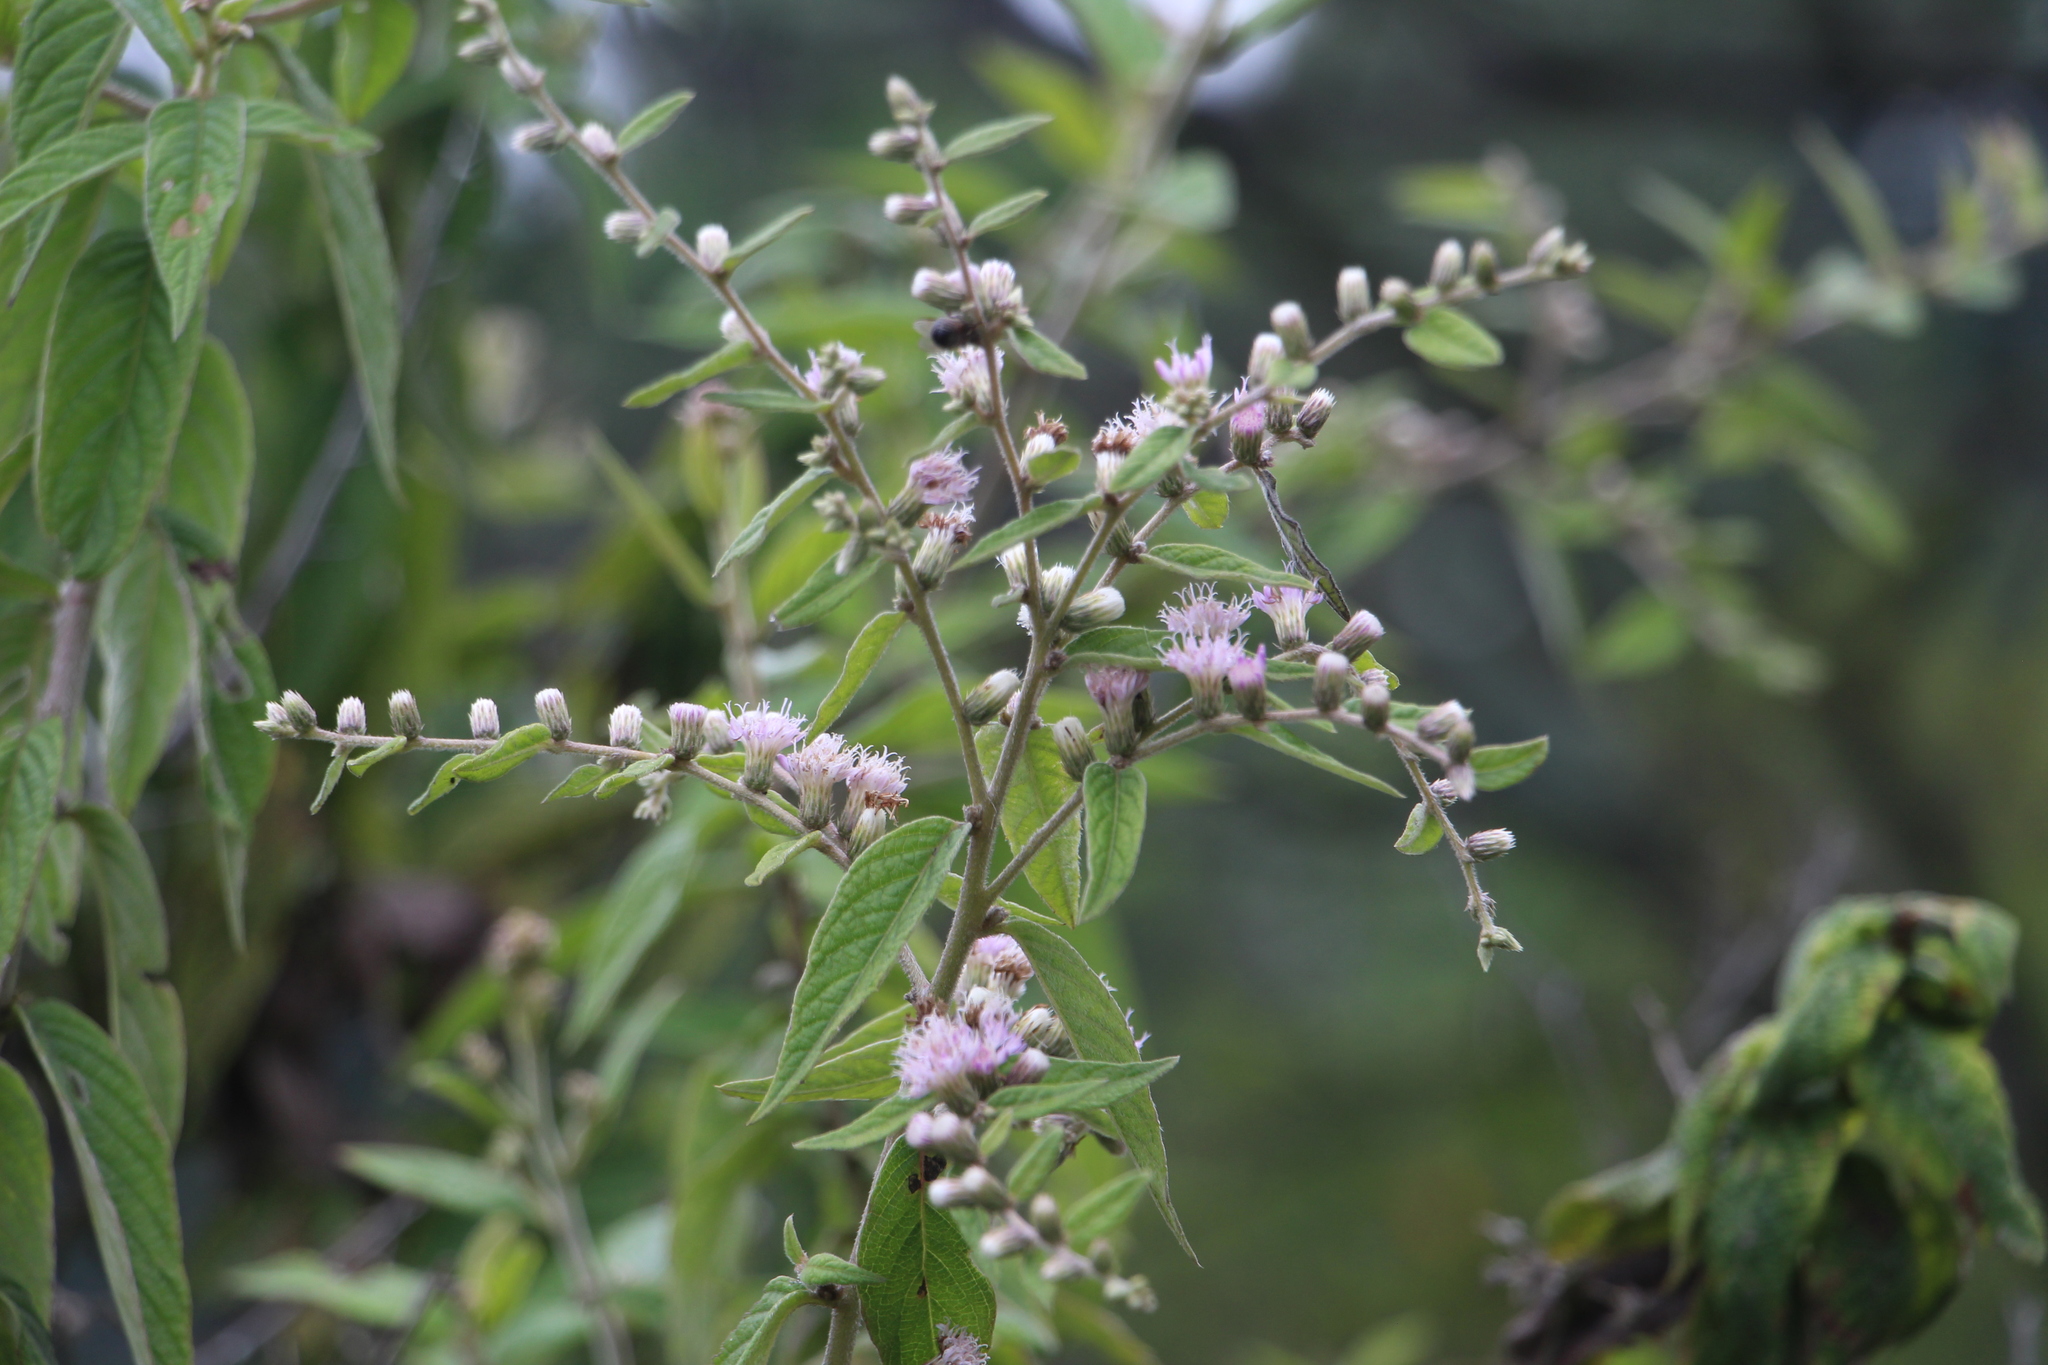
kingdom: Plantae
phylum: Tracheophyta
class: Magnoliopsida
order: Asterales
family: Asteraceae
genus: Lepidaploa
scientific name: Lepidaploa canescens
